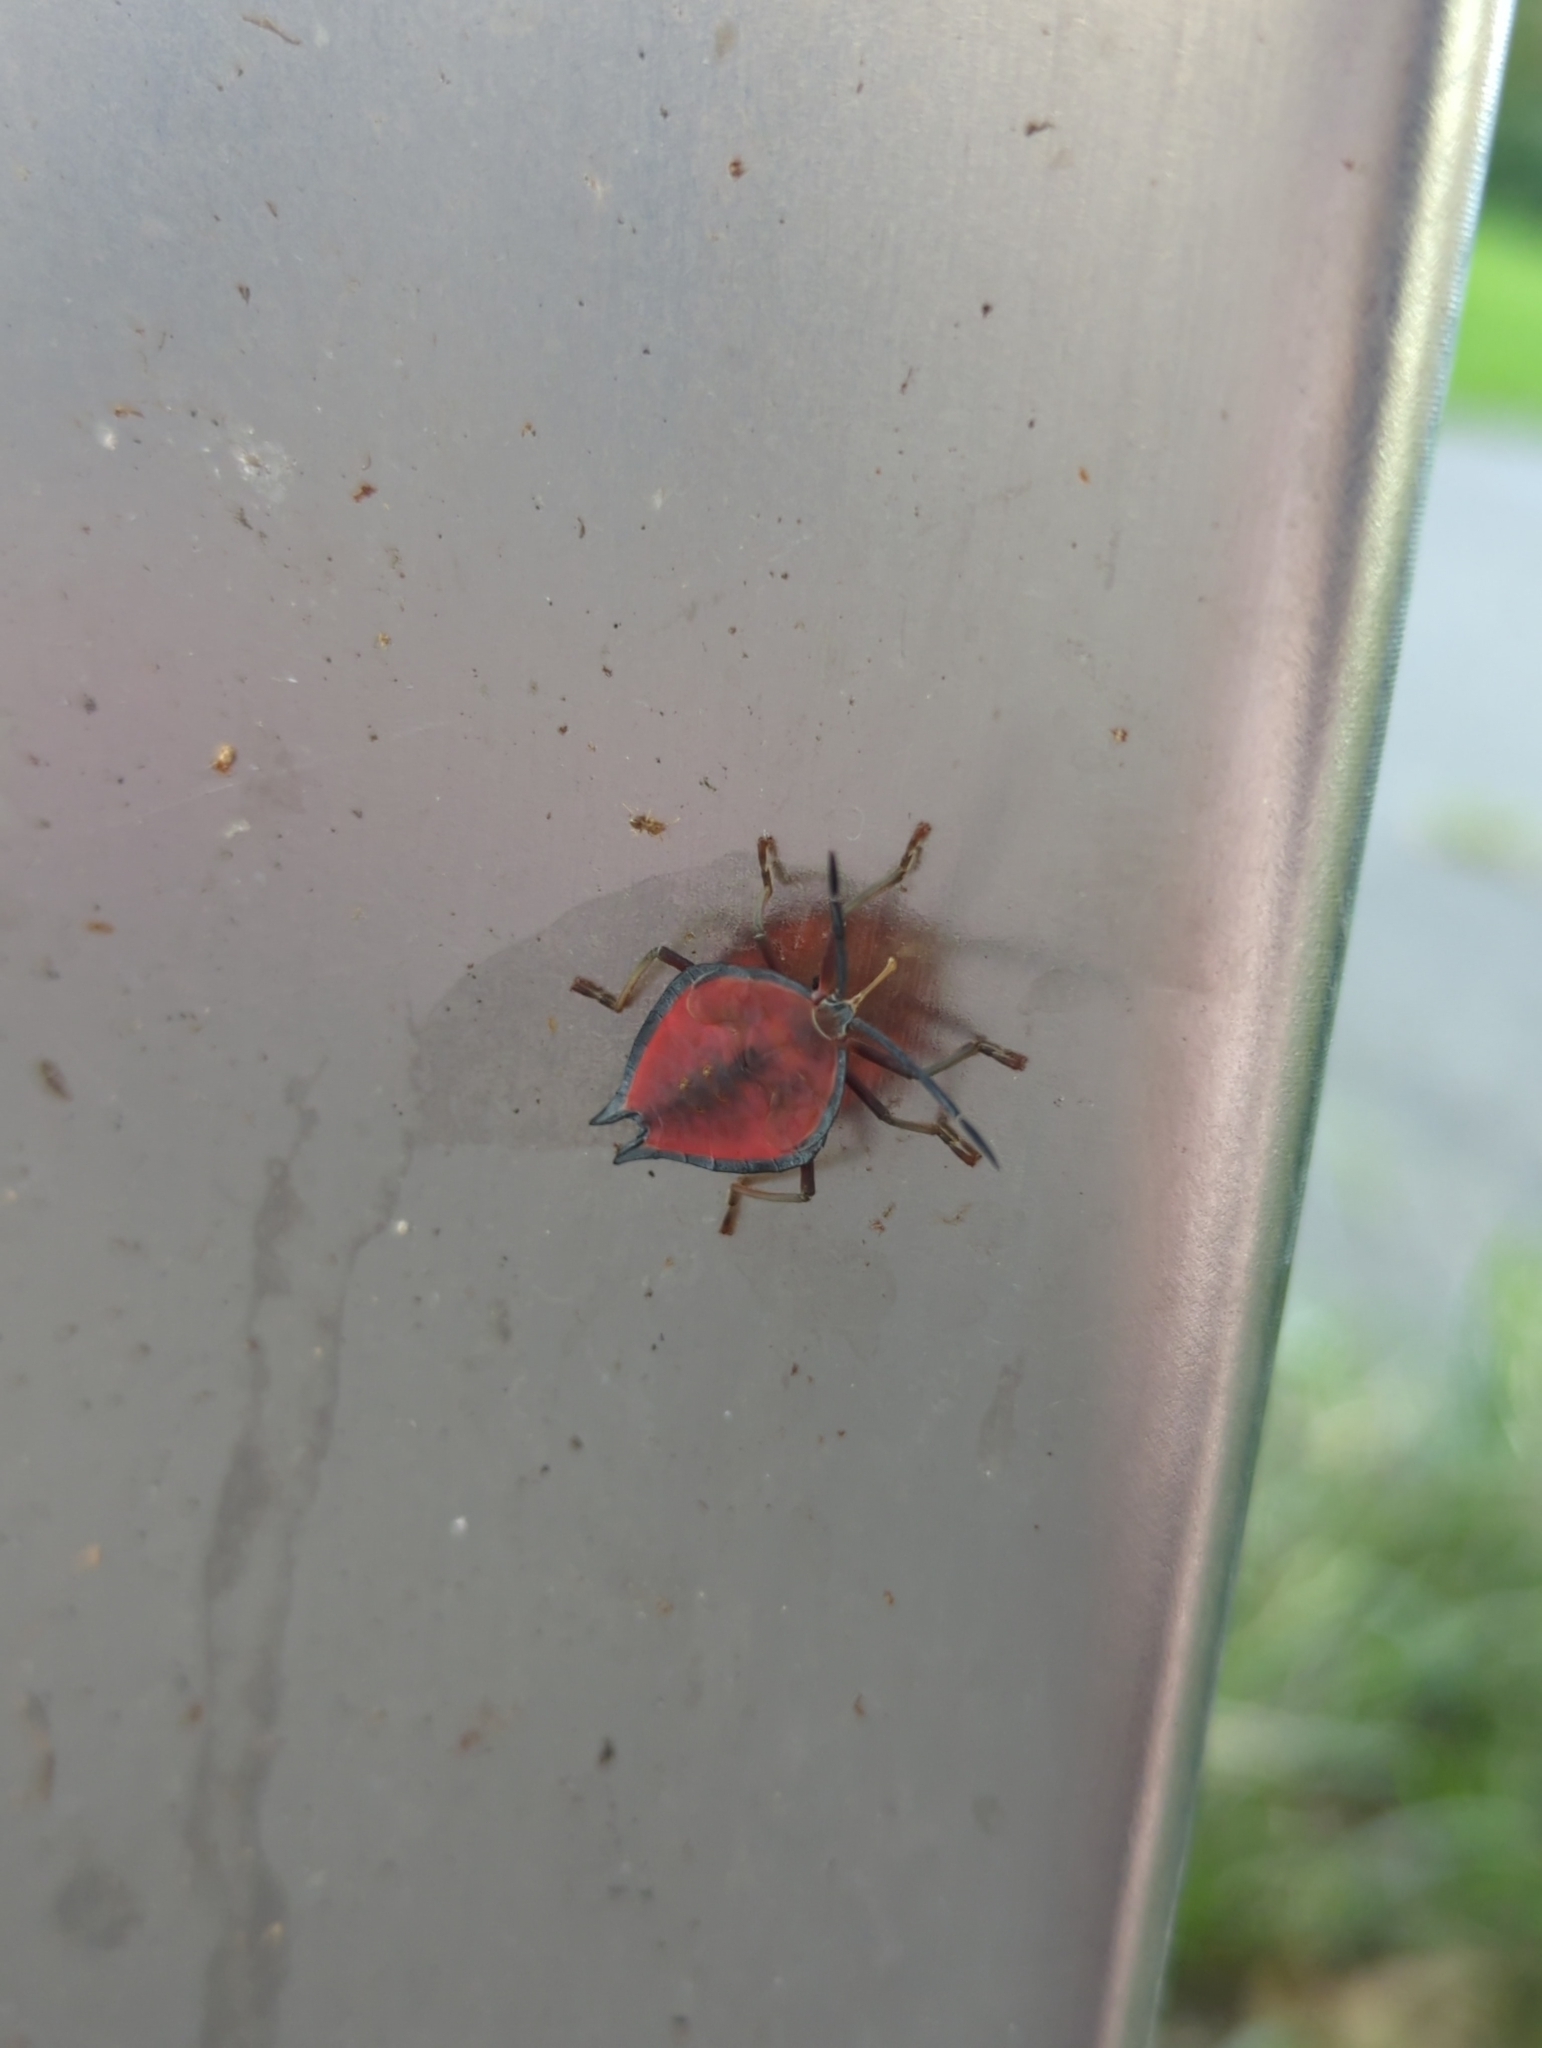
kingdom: Animalia
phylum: Arthropoda
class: Insecta
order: Hemiptera
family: Tessaratomidae
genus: Lyramorpha
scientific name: Lyramorpha rosea
